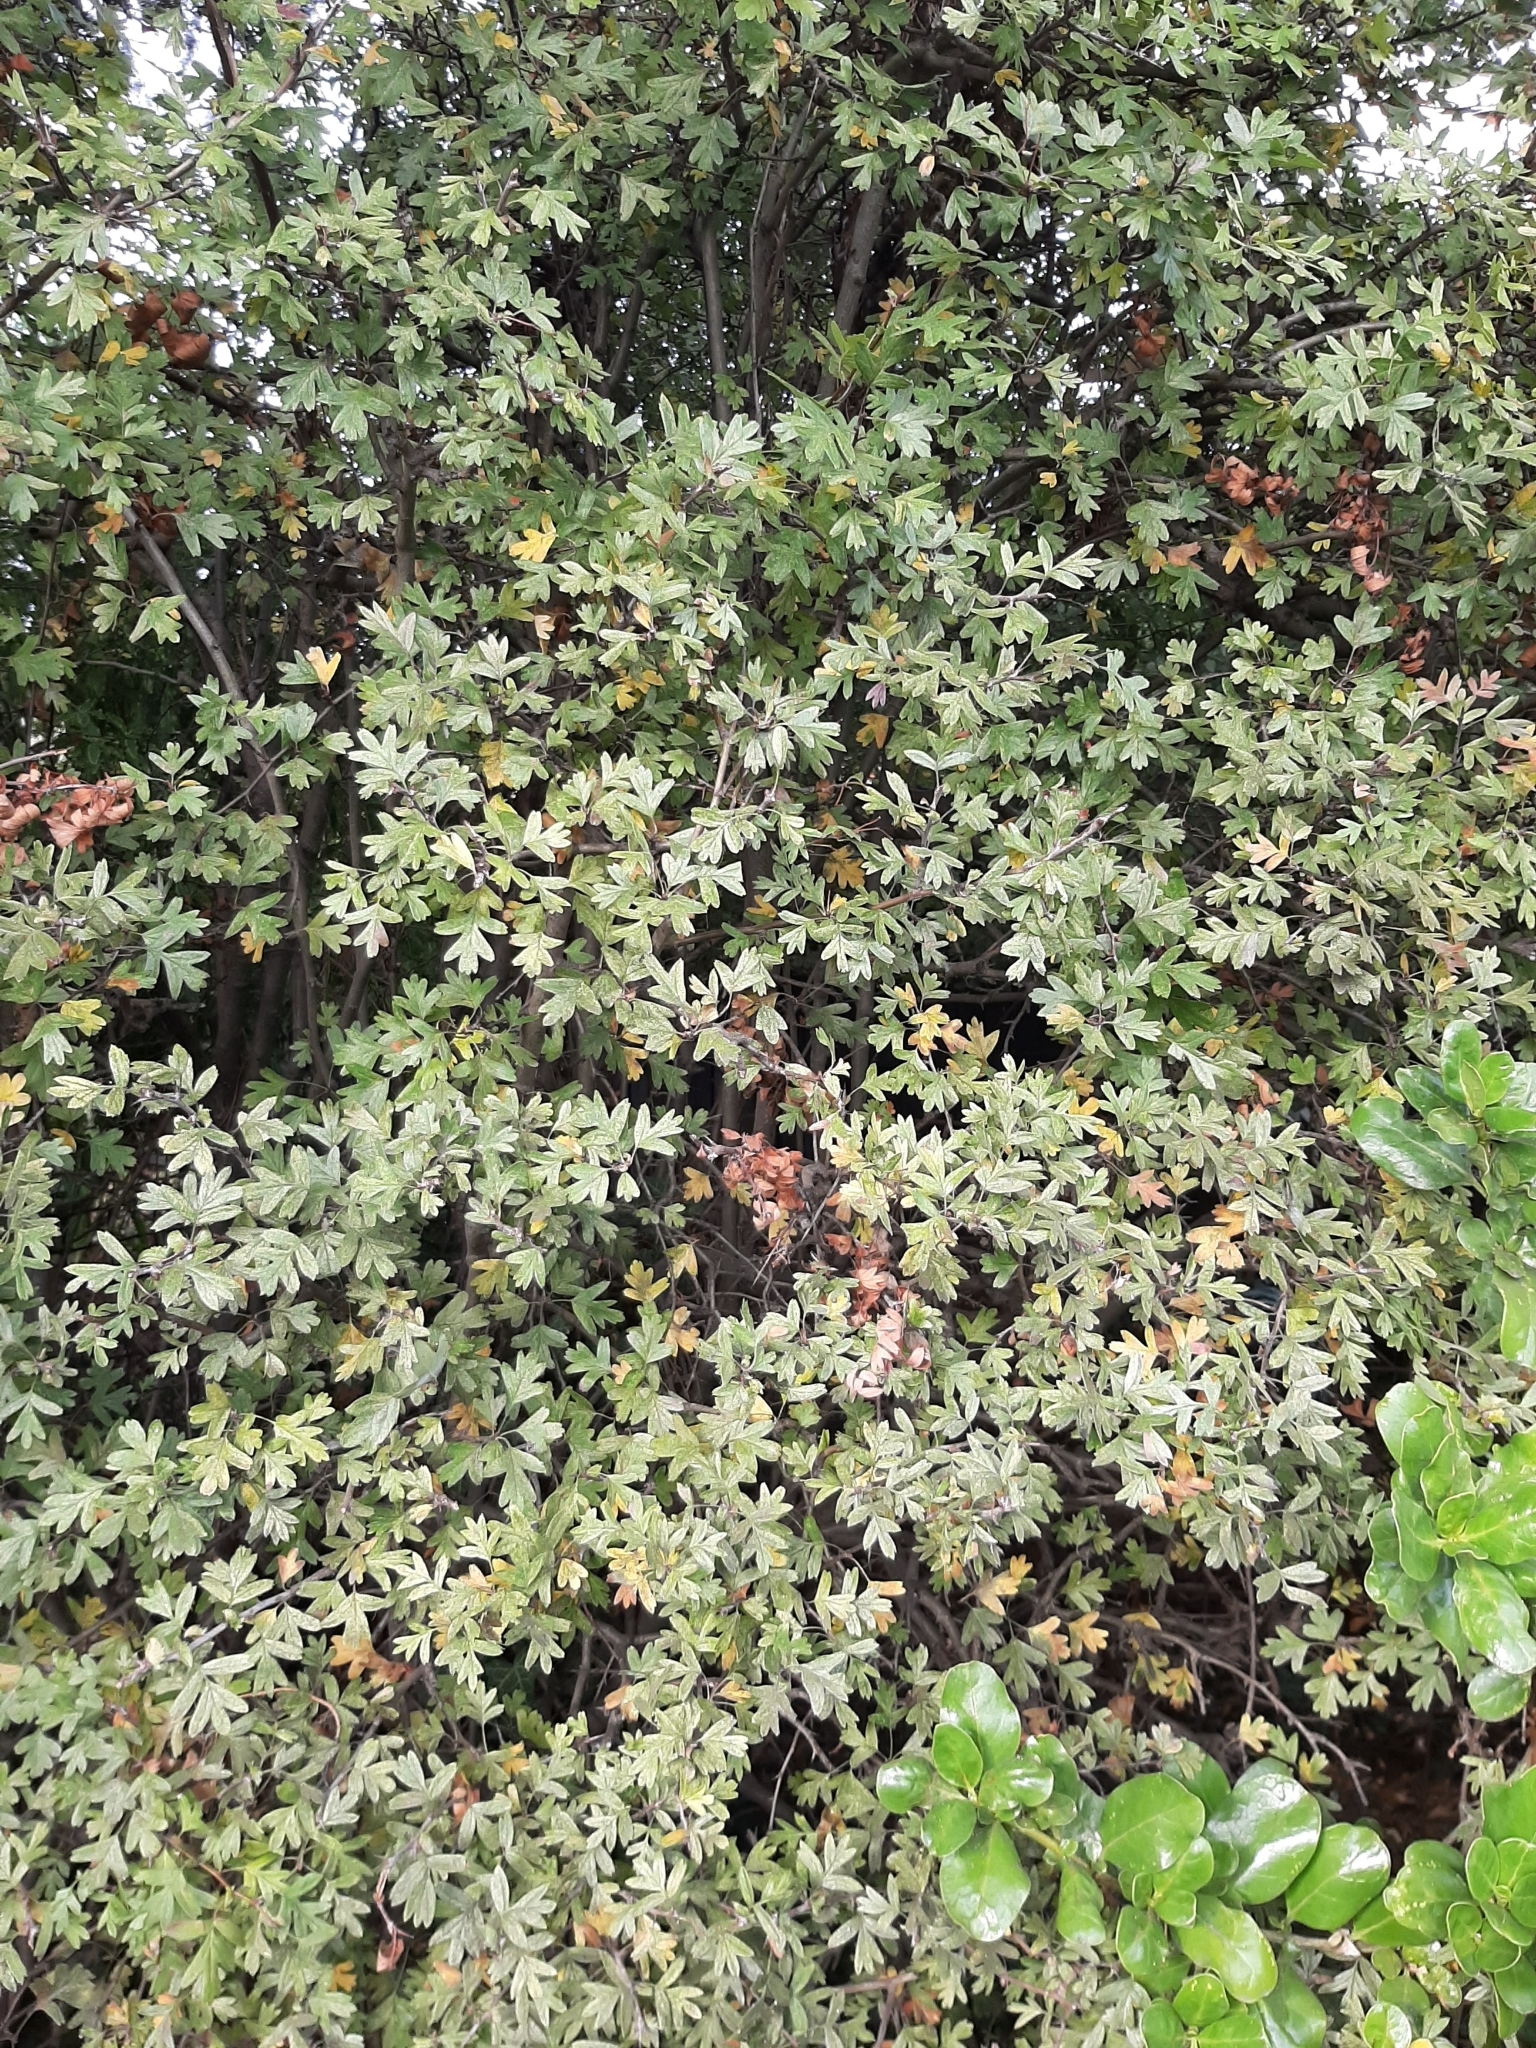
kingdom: Plantae
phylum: Tracheophyta
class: Magnoliopsida
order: Rosales
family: Rosaceae
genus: Crataegus
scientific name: Crataegus monogyna
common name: Hawthorn
